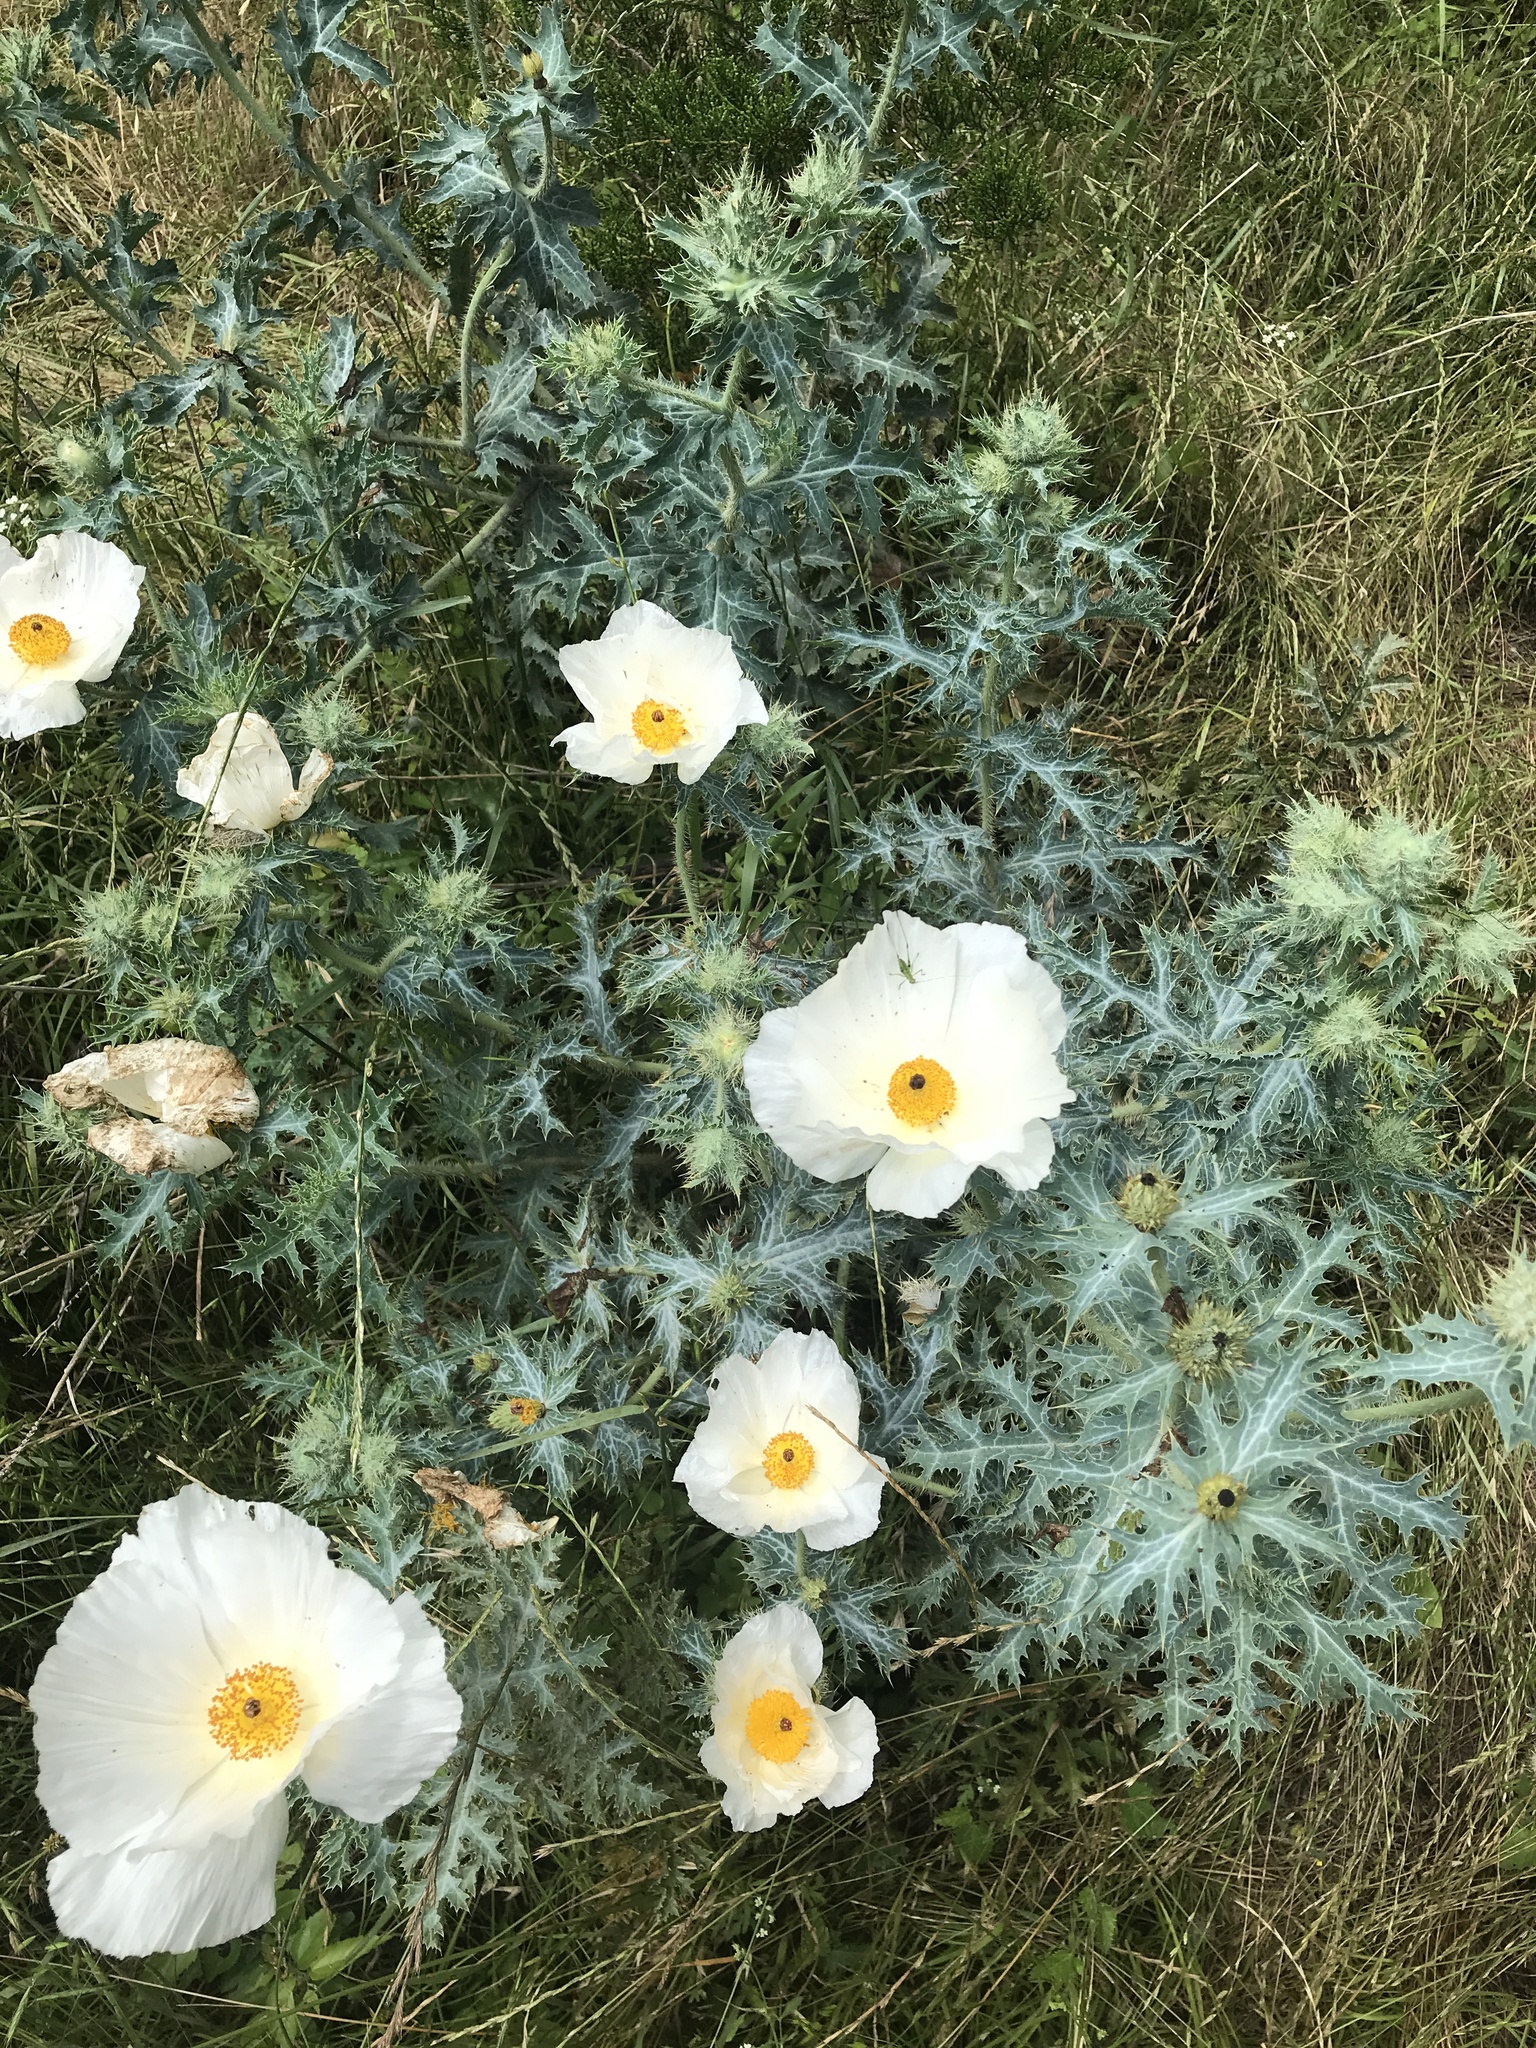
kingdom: Plantae
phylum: Tracheophyta
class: Magnoliopsida
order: Ranunculales
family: Papaveraceae
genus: Argemone
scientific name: Argemone aurantiaca
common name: Texas prickly-poppy
